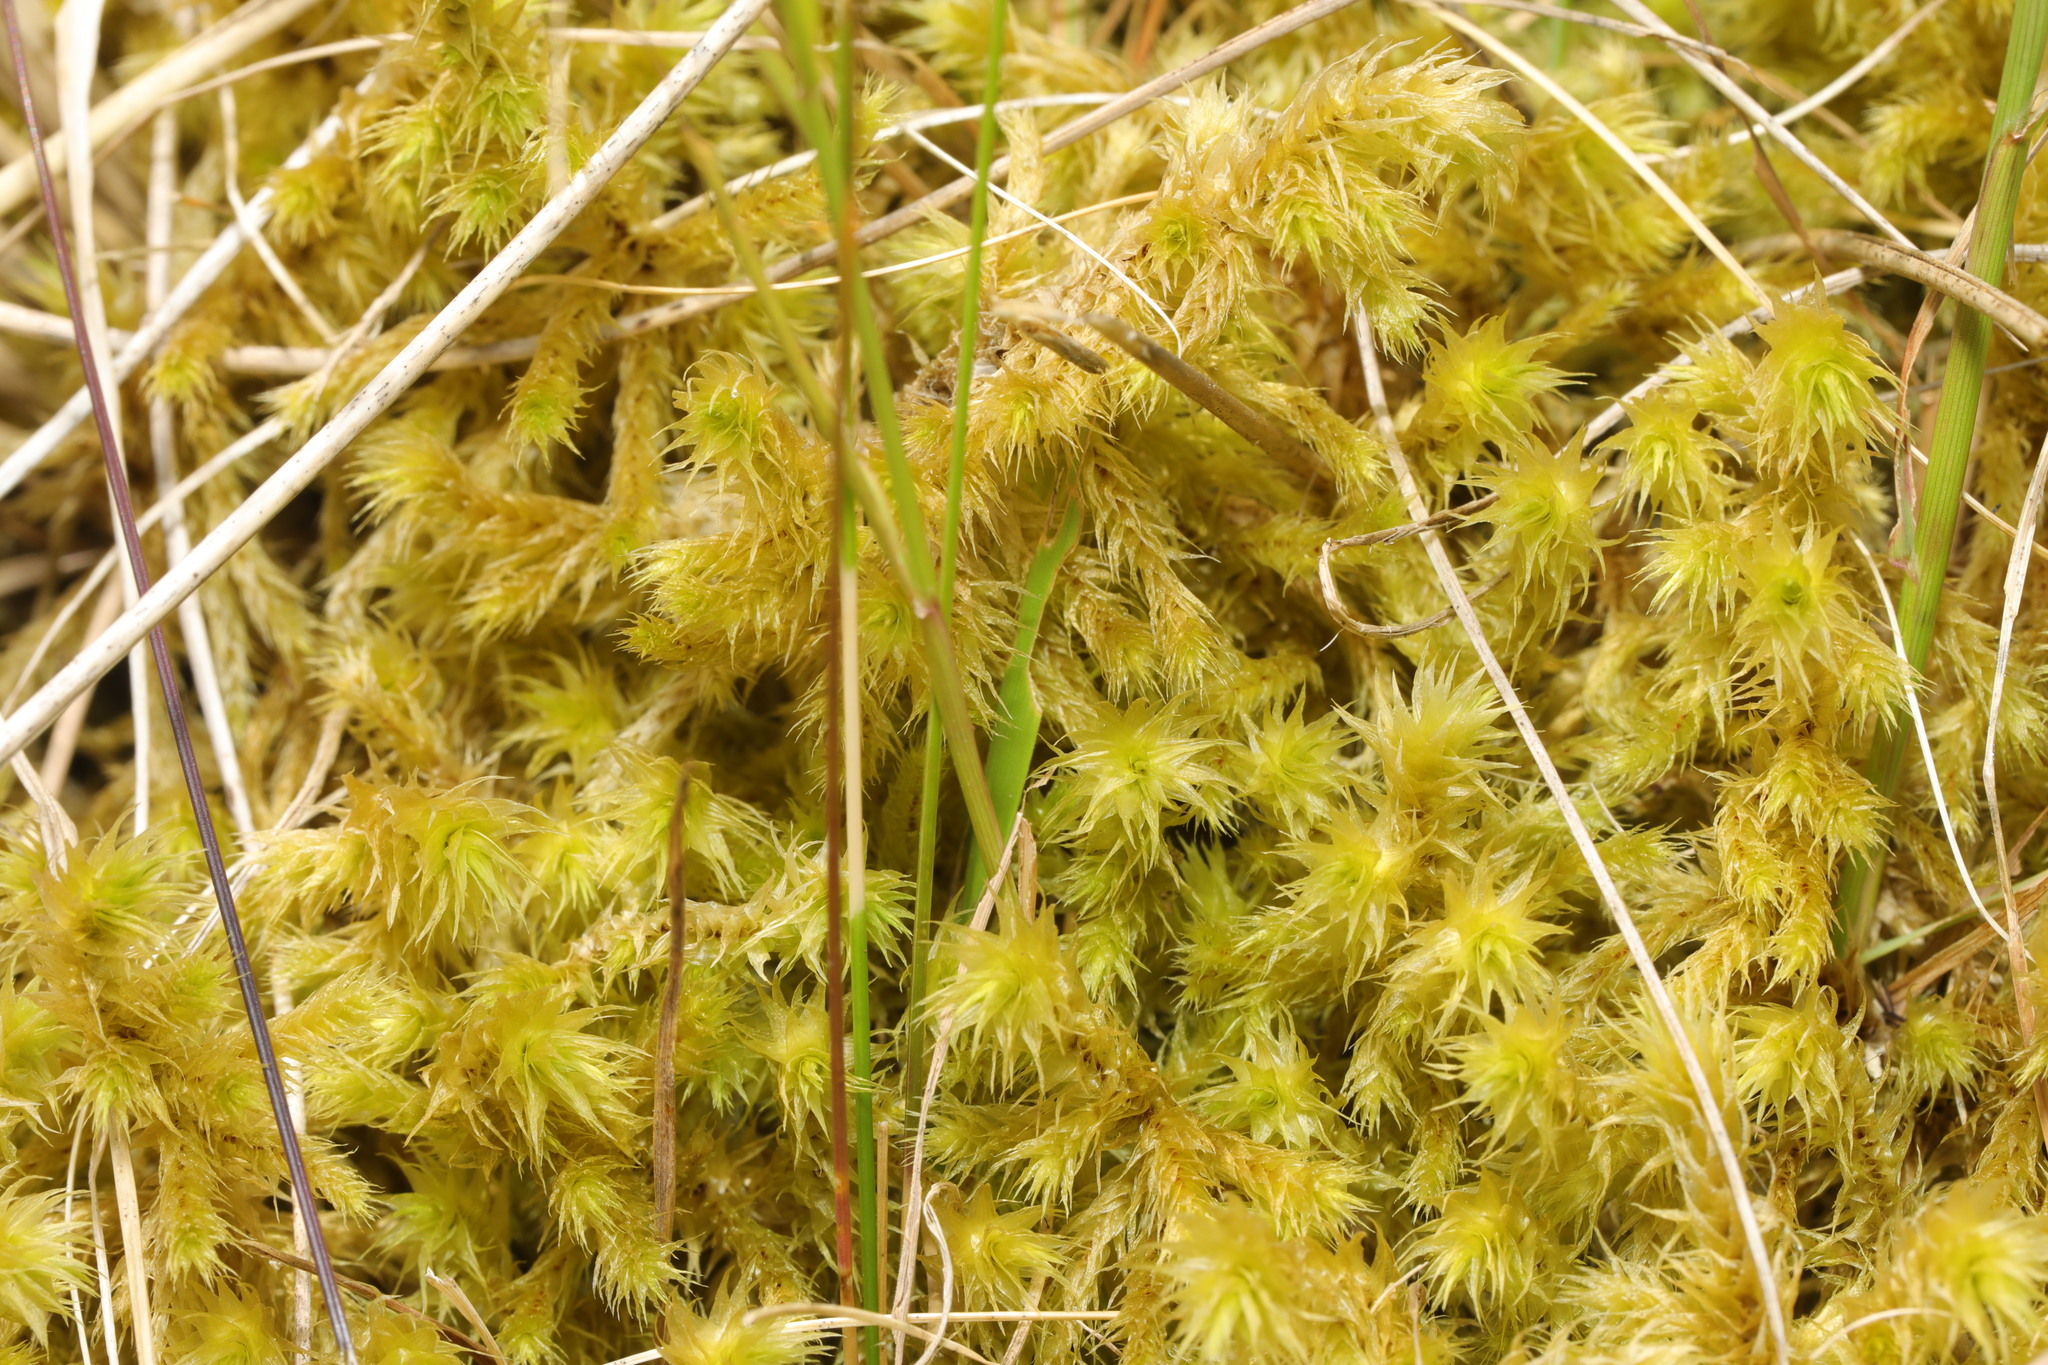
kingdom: Plantae
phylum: Bryophyta
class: Bryopsida
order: Hypnales
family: Hylocomiaceae
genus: Hylocomiadelphus
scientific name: Hylocomiadelphus triquetrus
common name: Rough goose neck moss
